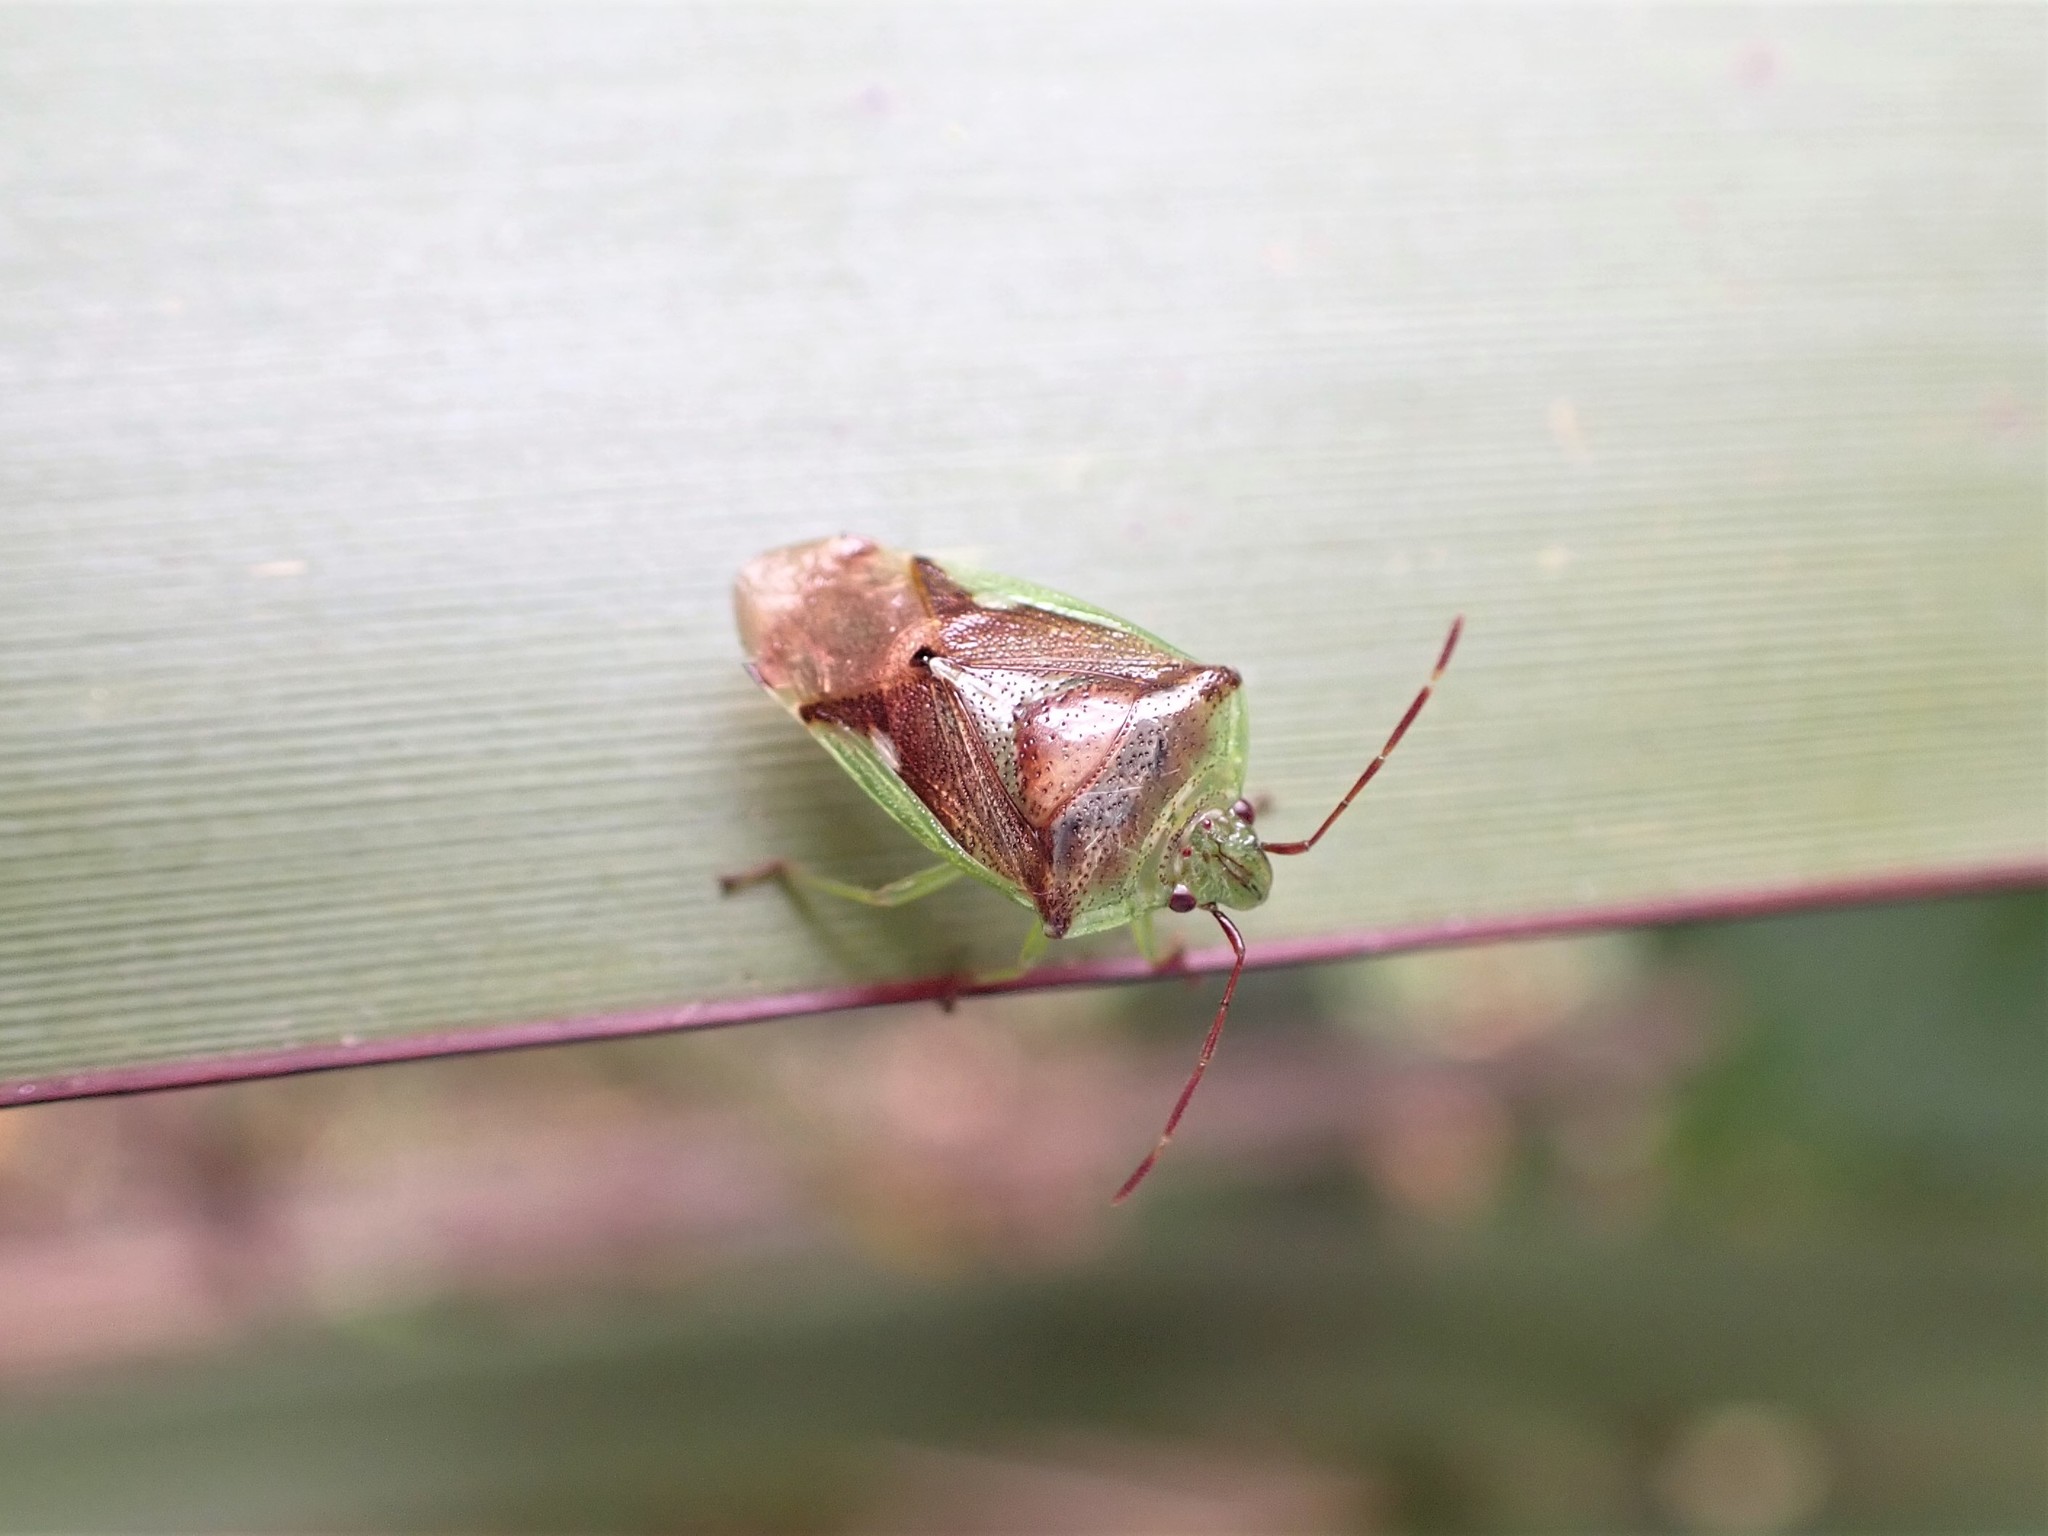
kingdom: Animalia
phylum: Arthropoda
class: Insecta
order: Hemiptera
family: Acanthosomatidae
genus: Oncacontias
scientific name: Oncacontias vittatus
